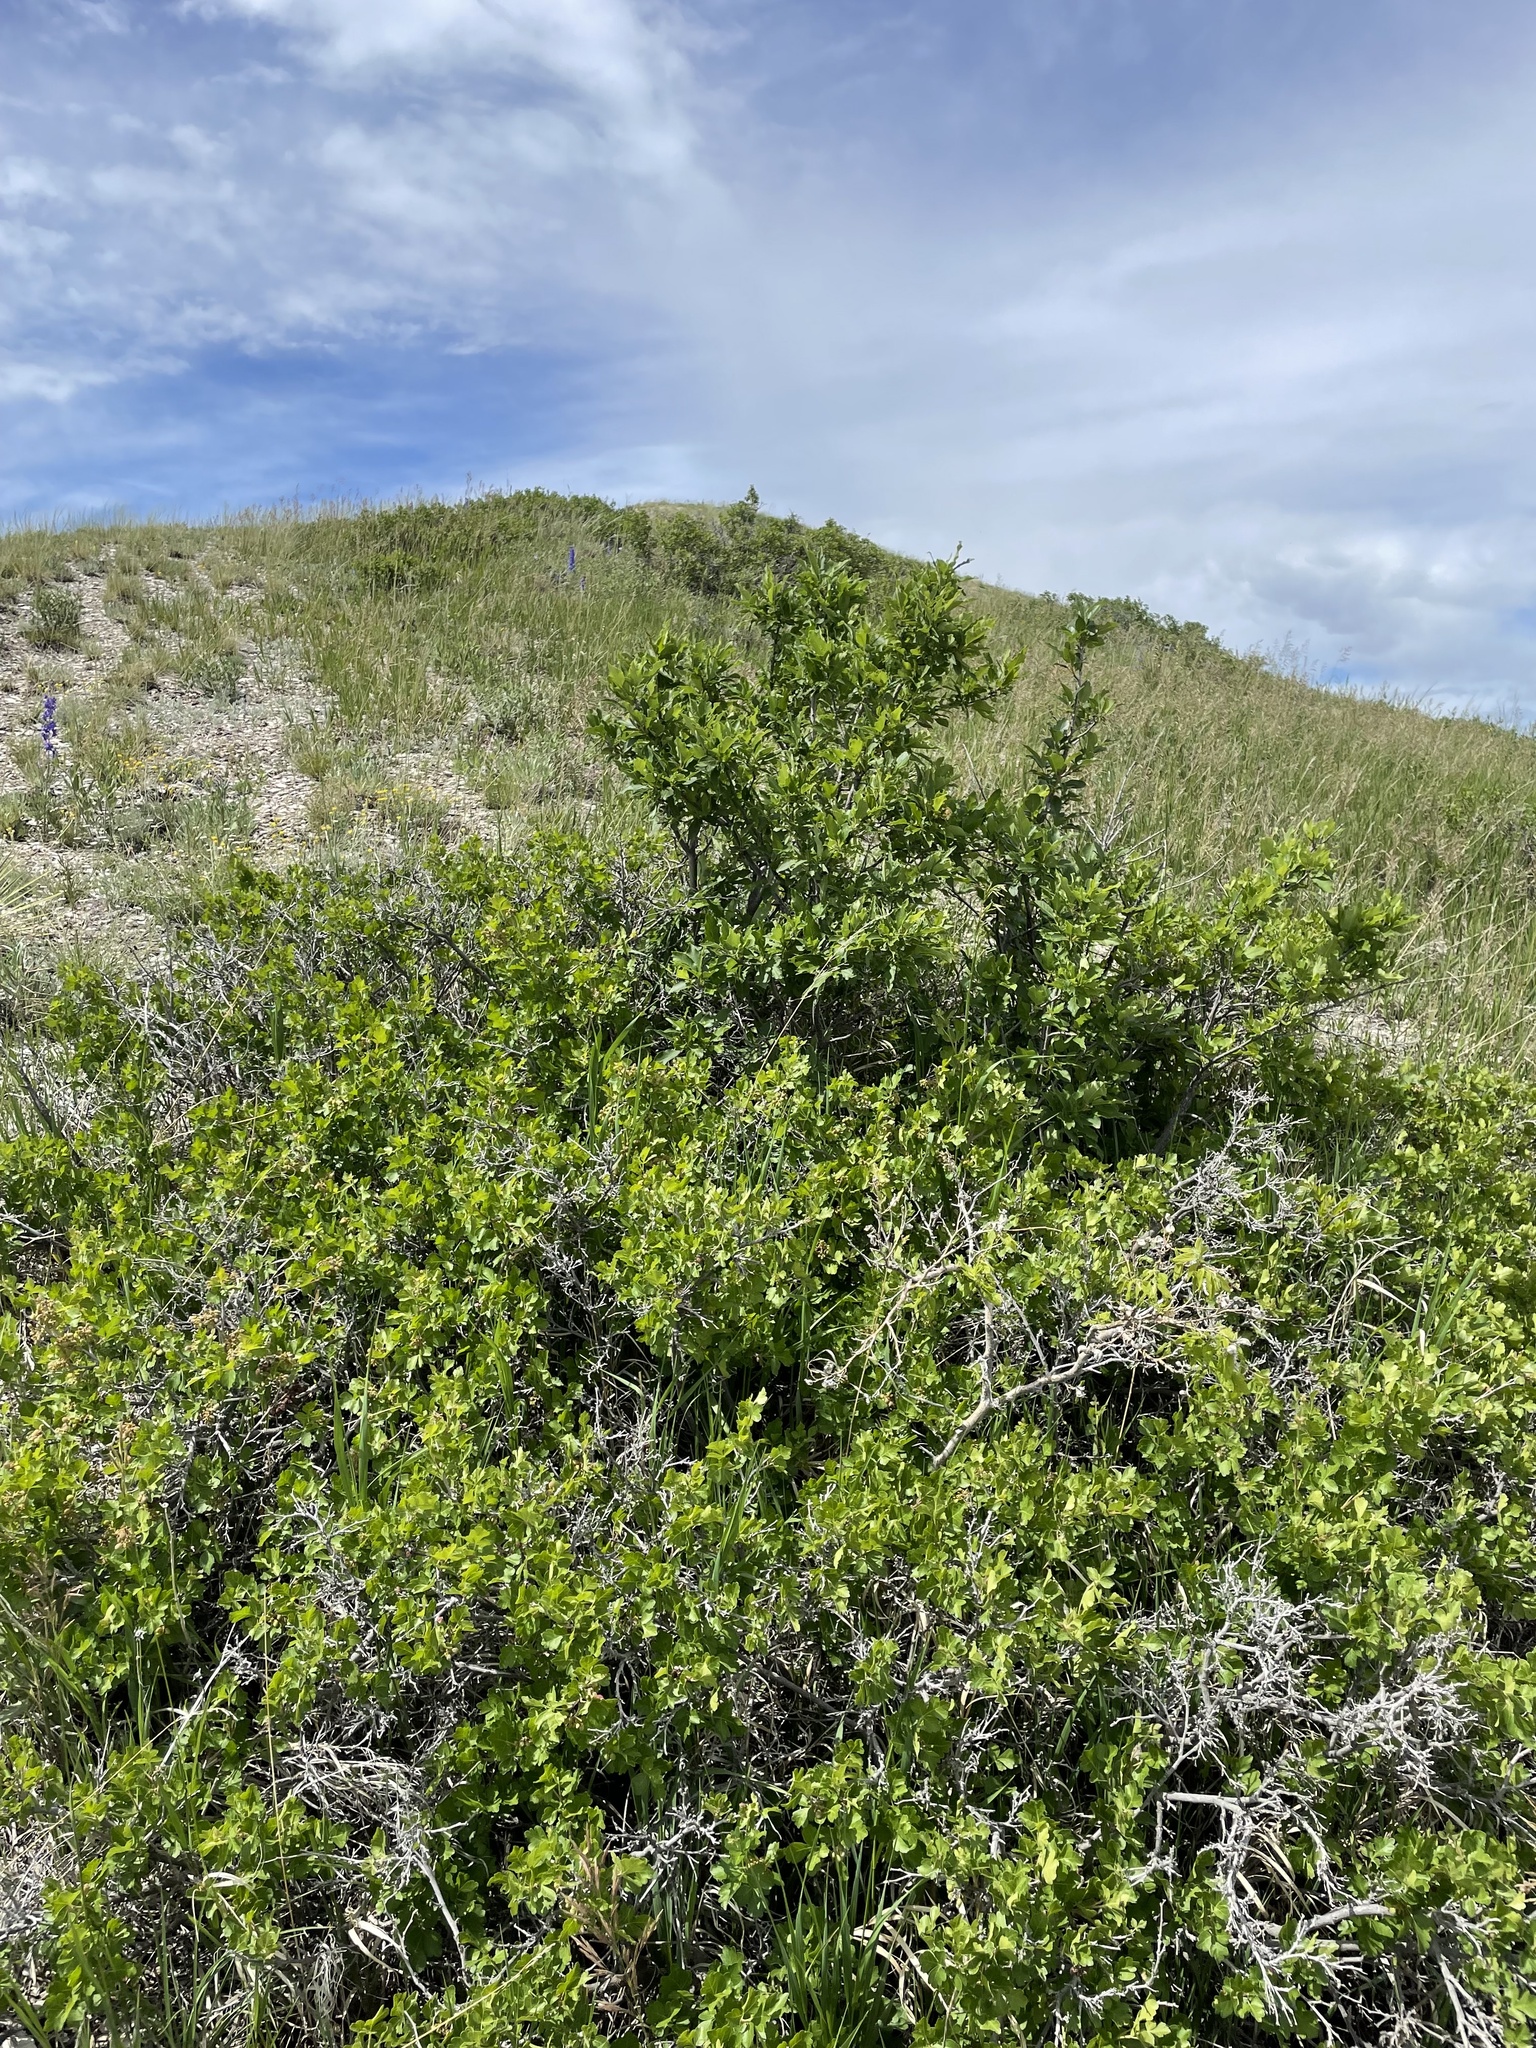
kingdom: Plantae
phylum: Tracheophyta
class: Magnoliopsida
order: Sapindales
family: Anacardiaceae
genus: Rhus
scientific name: Rhus trilobata
